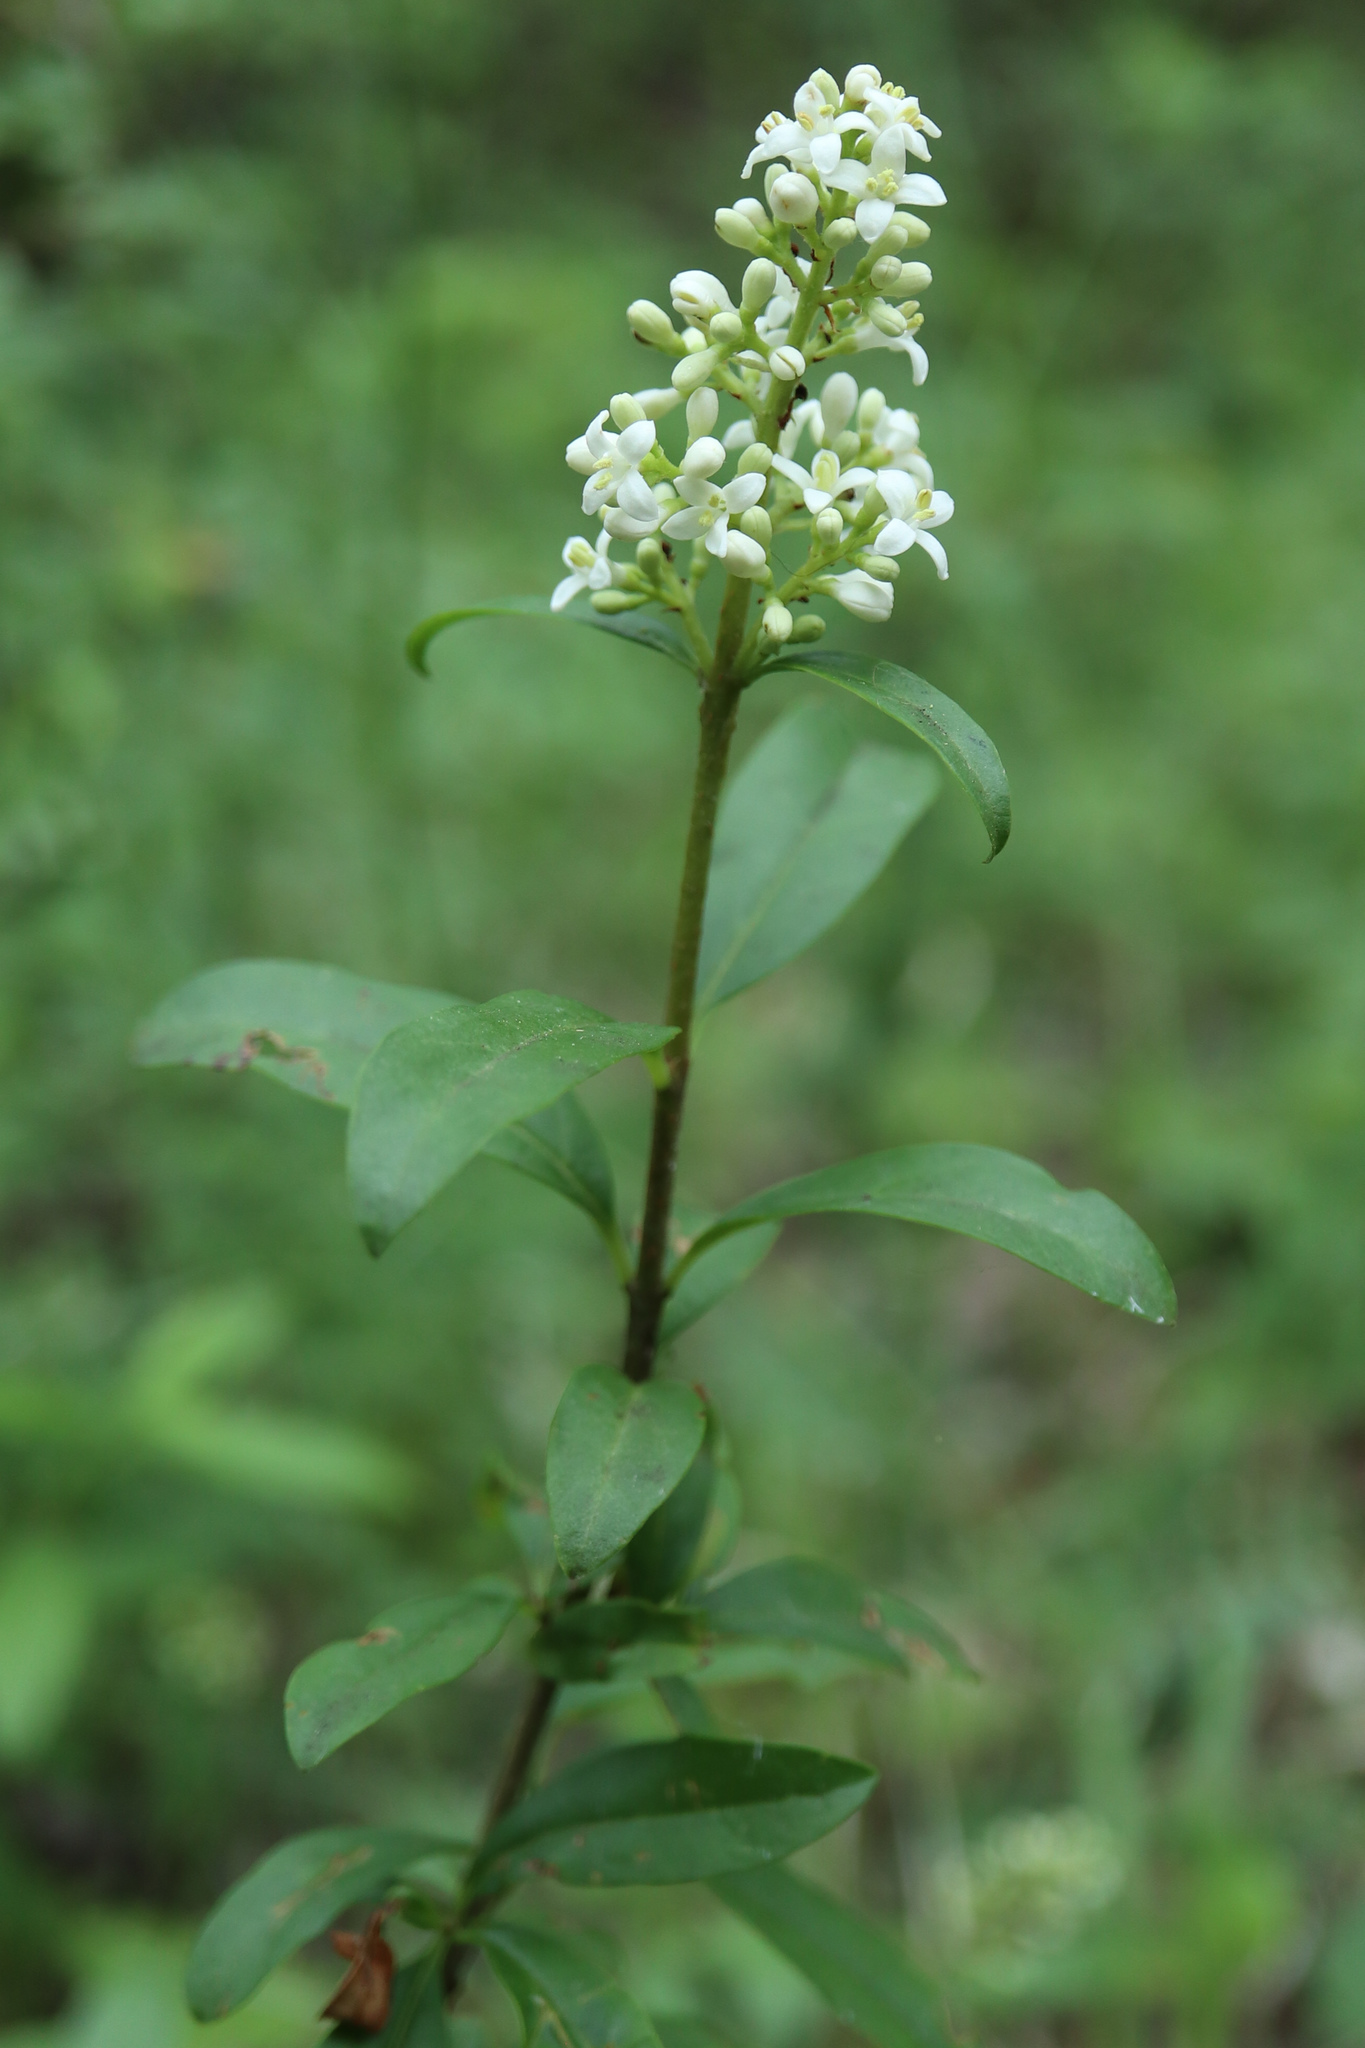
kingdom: Plantae
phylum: Tracheophyta
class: Magnoliopsida
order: Lamiales
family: Oleaceae
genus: Ligustrum
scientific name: Ligustrum vulgare
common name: Wild privet
